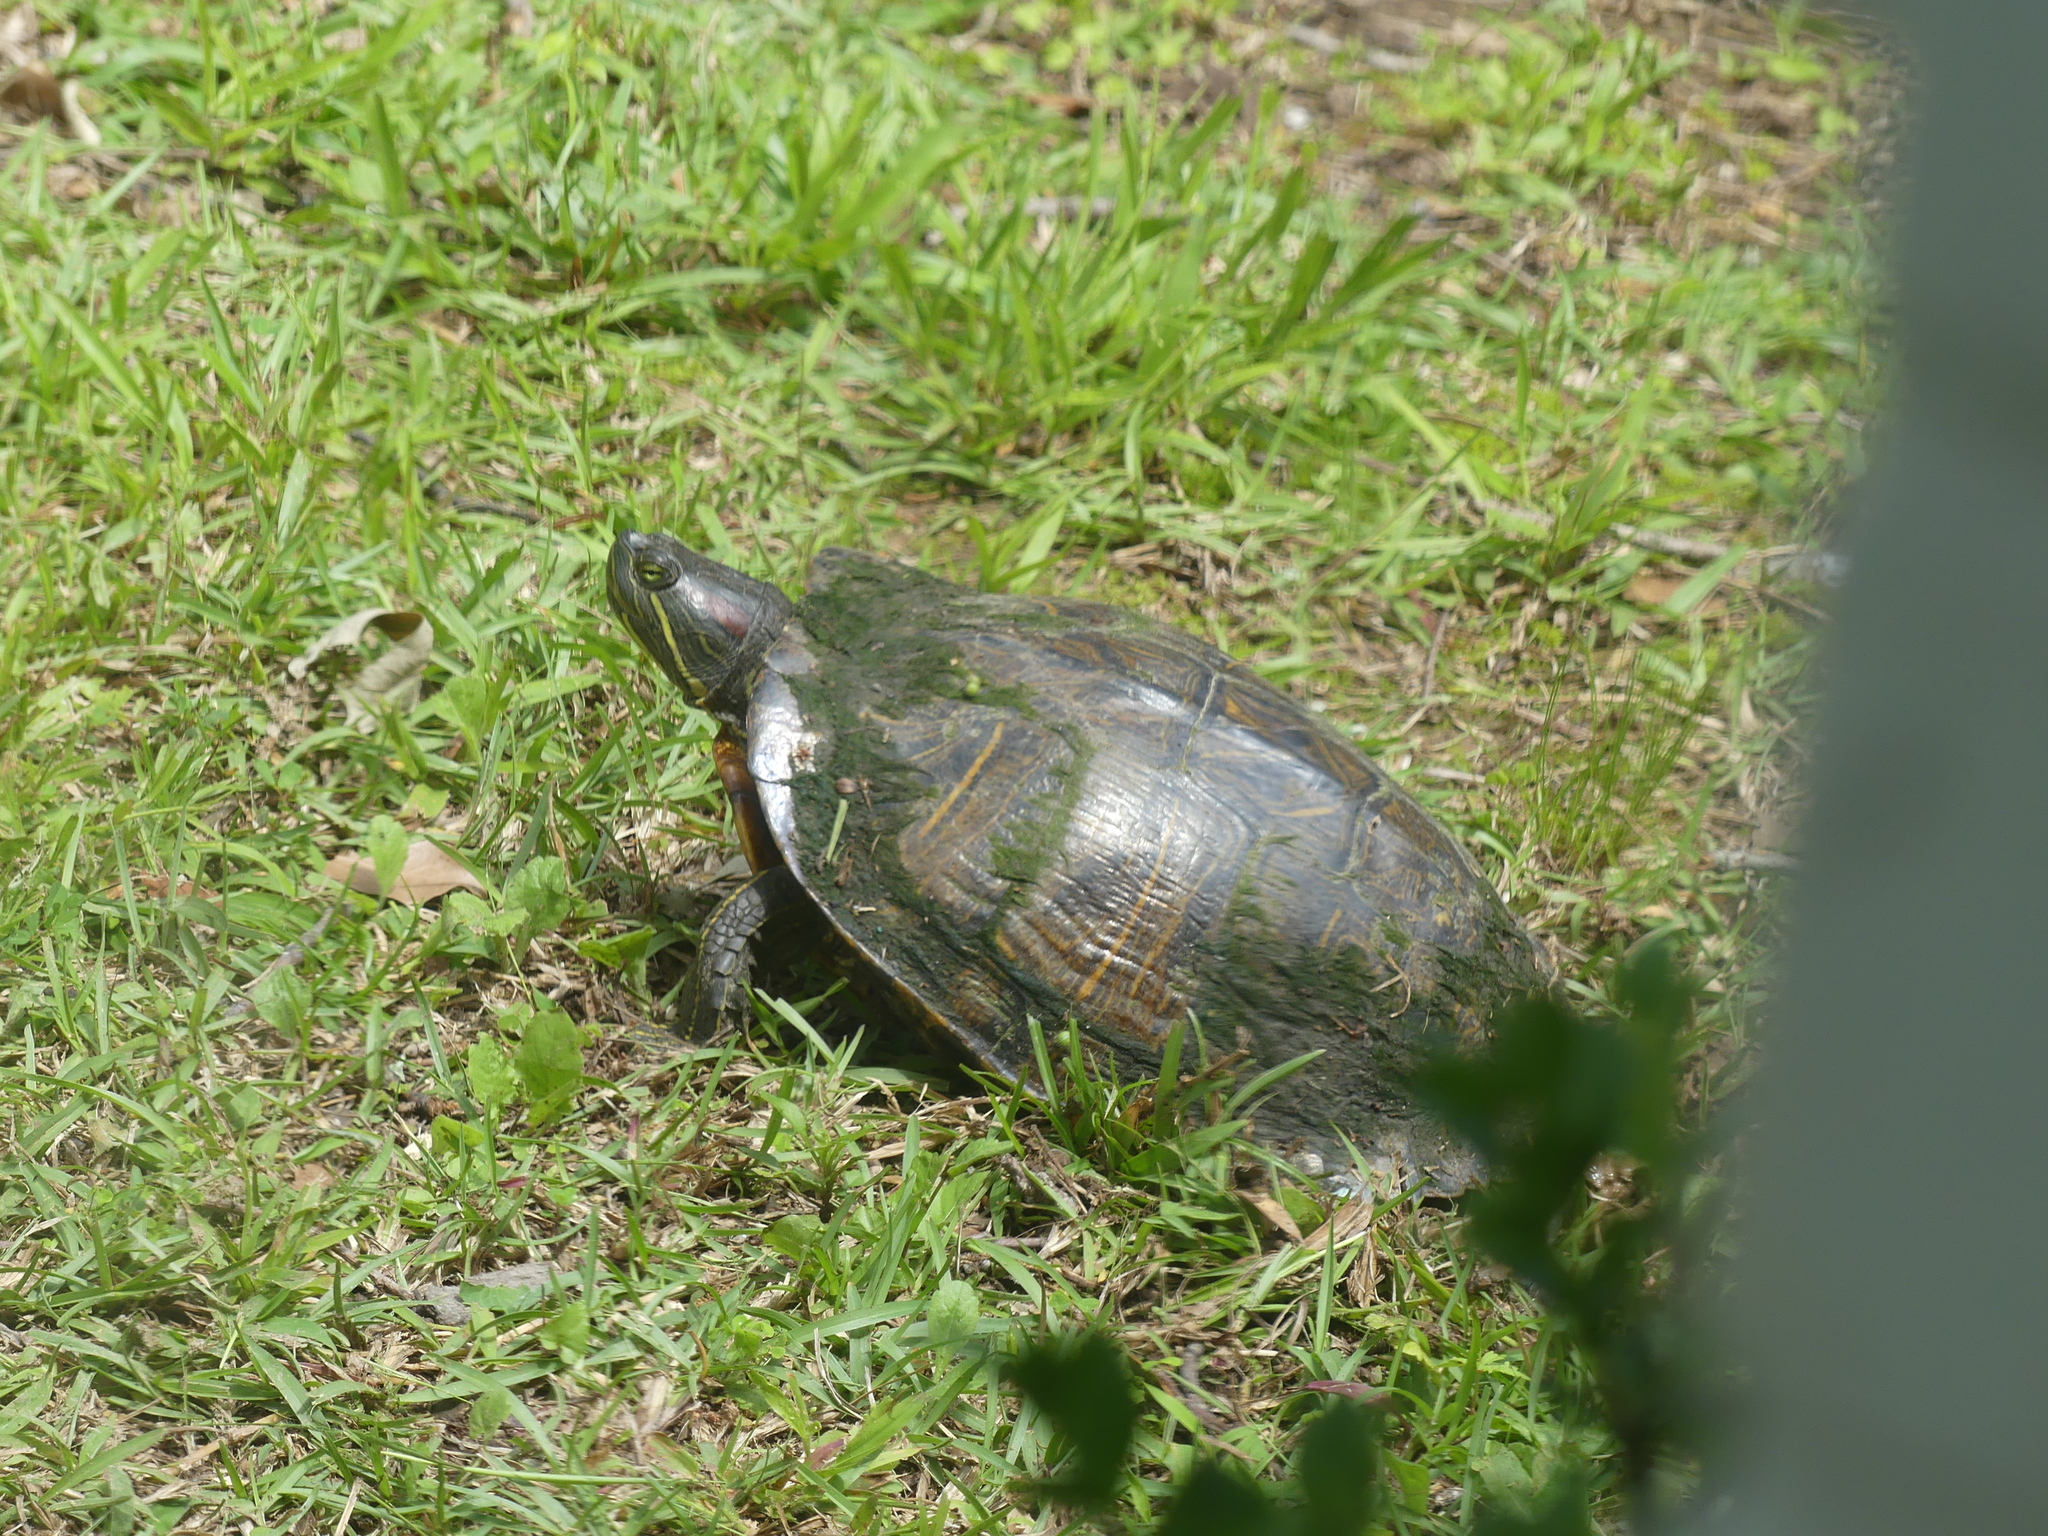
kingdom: Animalia
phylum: Chordata
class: Testudines
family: Emydidae
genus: Trachemys
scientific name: Trachemys scripta
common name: Slider
